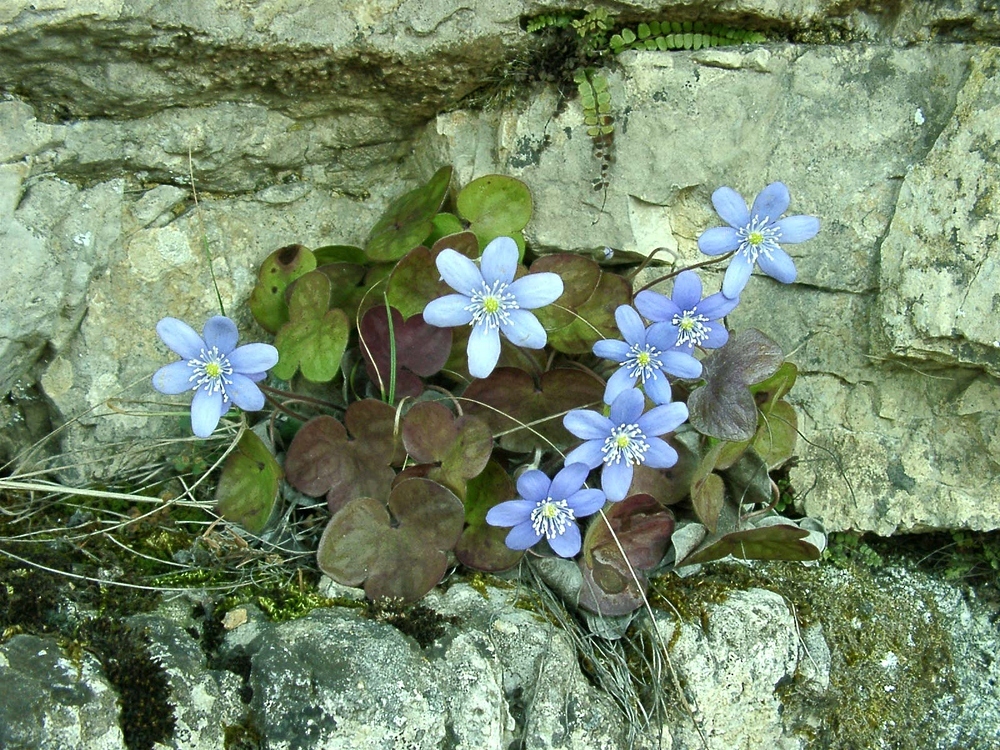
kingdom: Plantae
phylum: Tracheophyta
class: Magnoliopsida
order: Ranunculales
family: Ranunculaceae
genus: Hepatica
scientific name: Hepatica nobilis
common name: Liverleaf
